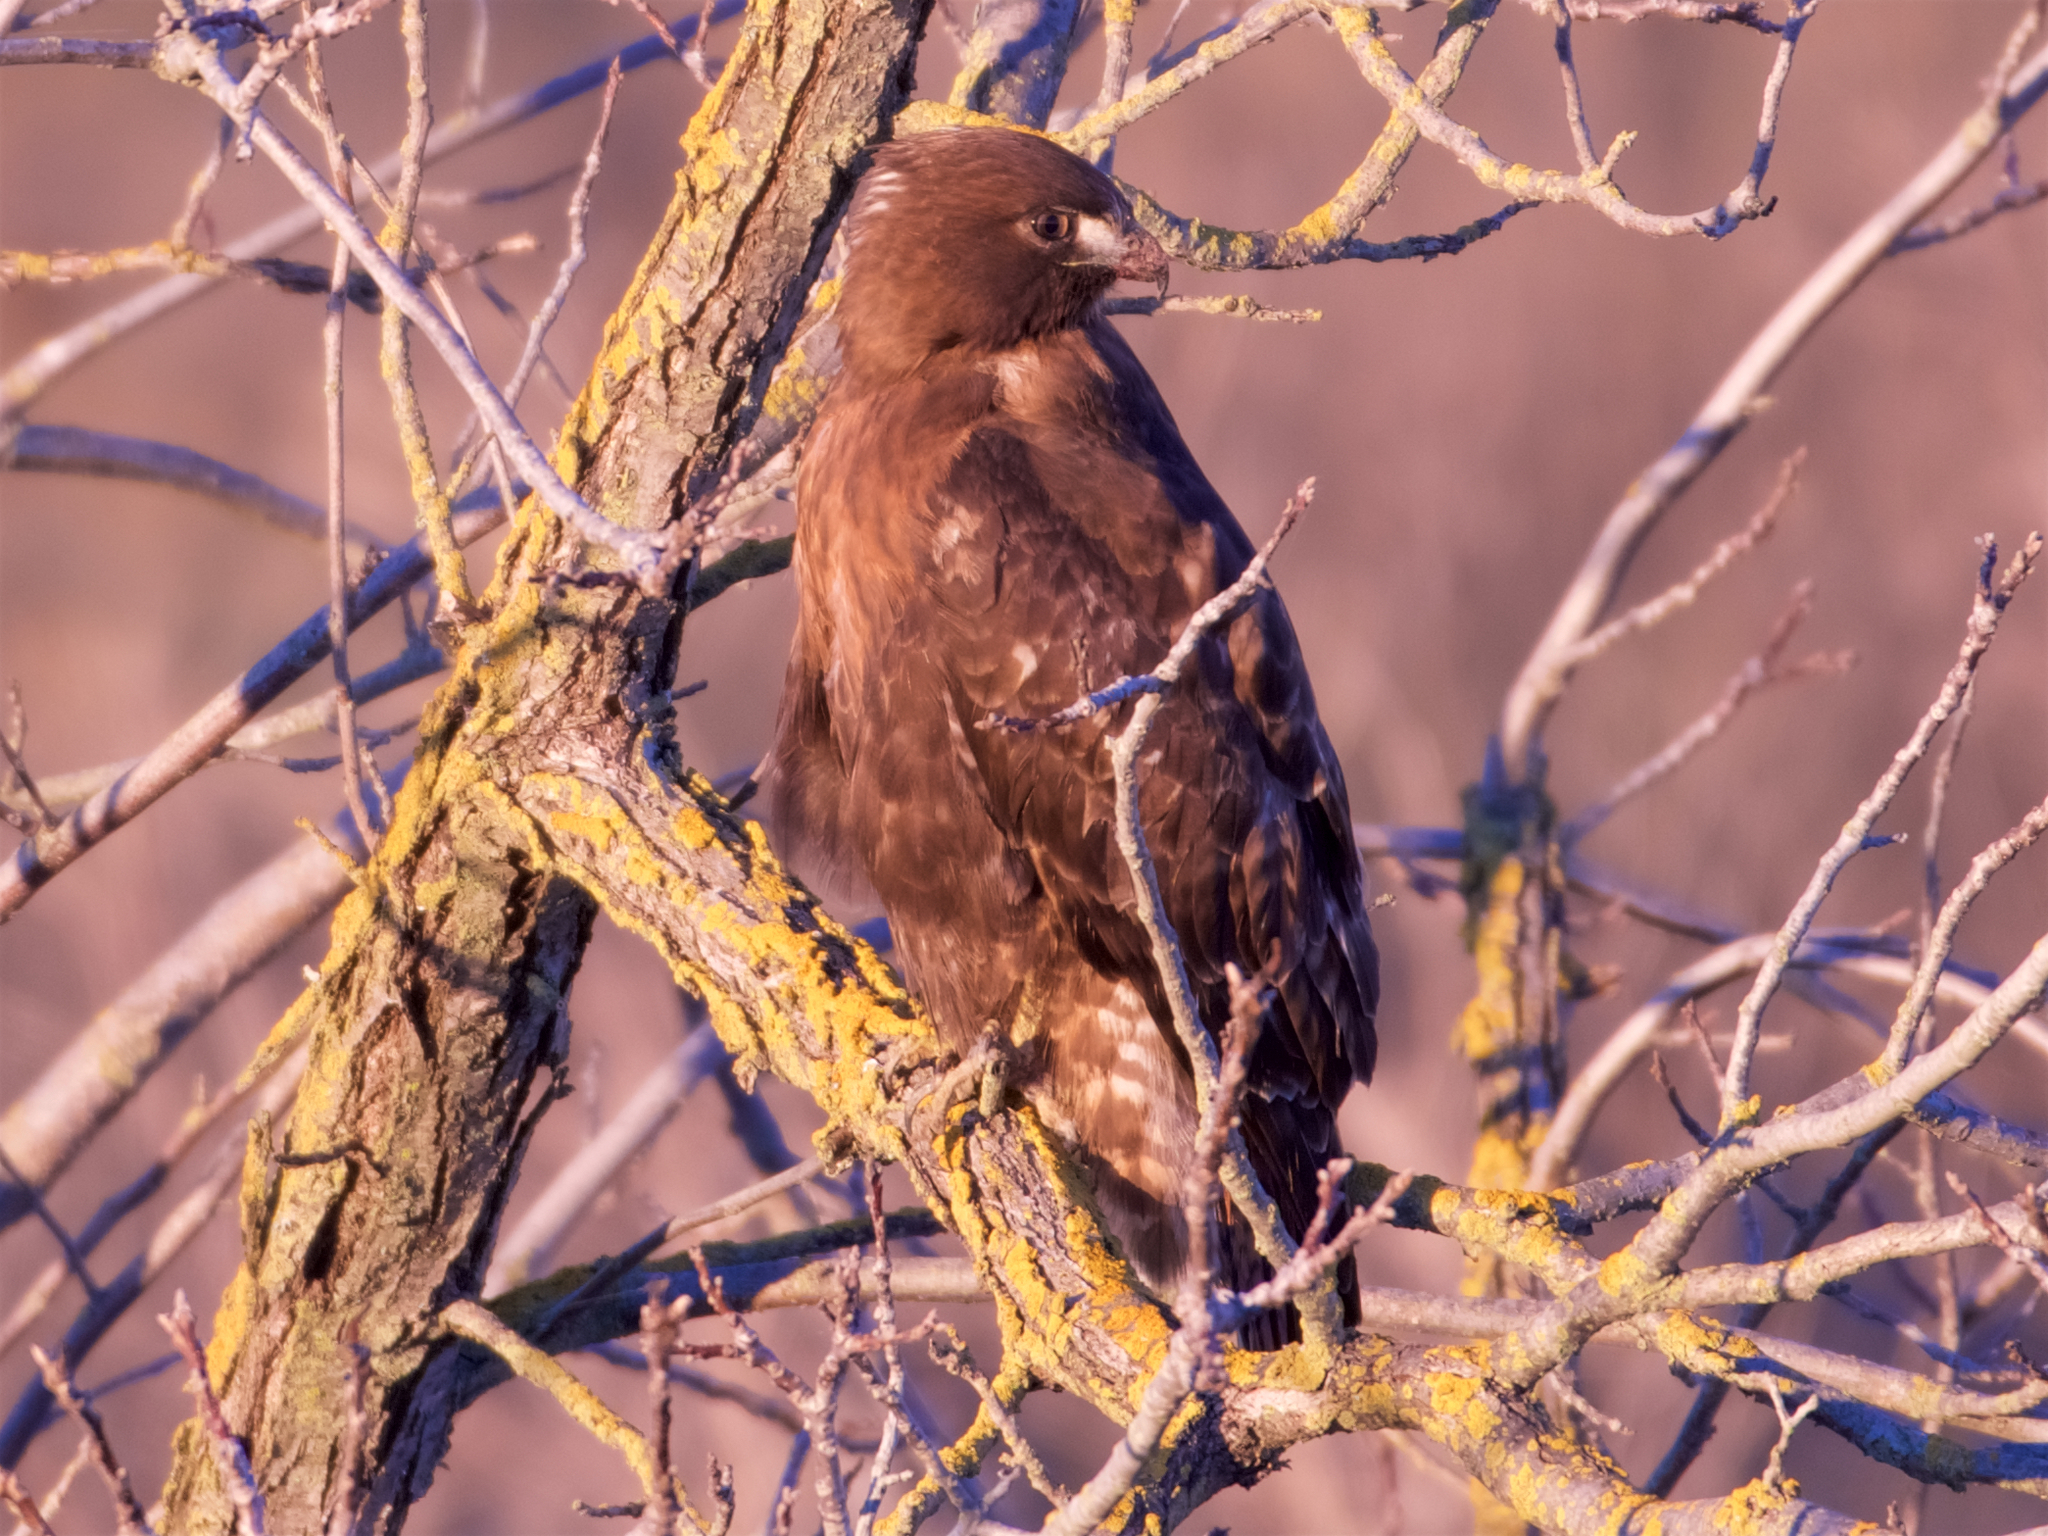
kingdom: Animalia
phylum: Chordata
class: Aves
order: Accipitriformes
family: Accipitridae
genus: Buteo
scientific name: Buteo jamaicensis
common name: Red-tailed hawk
